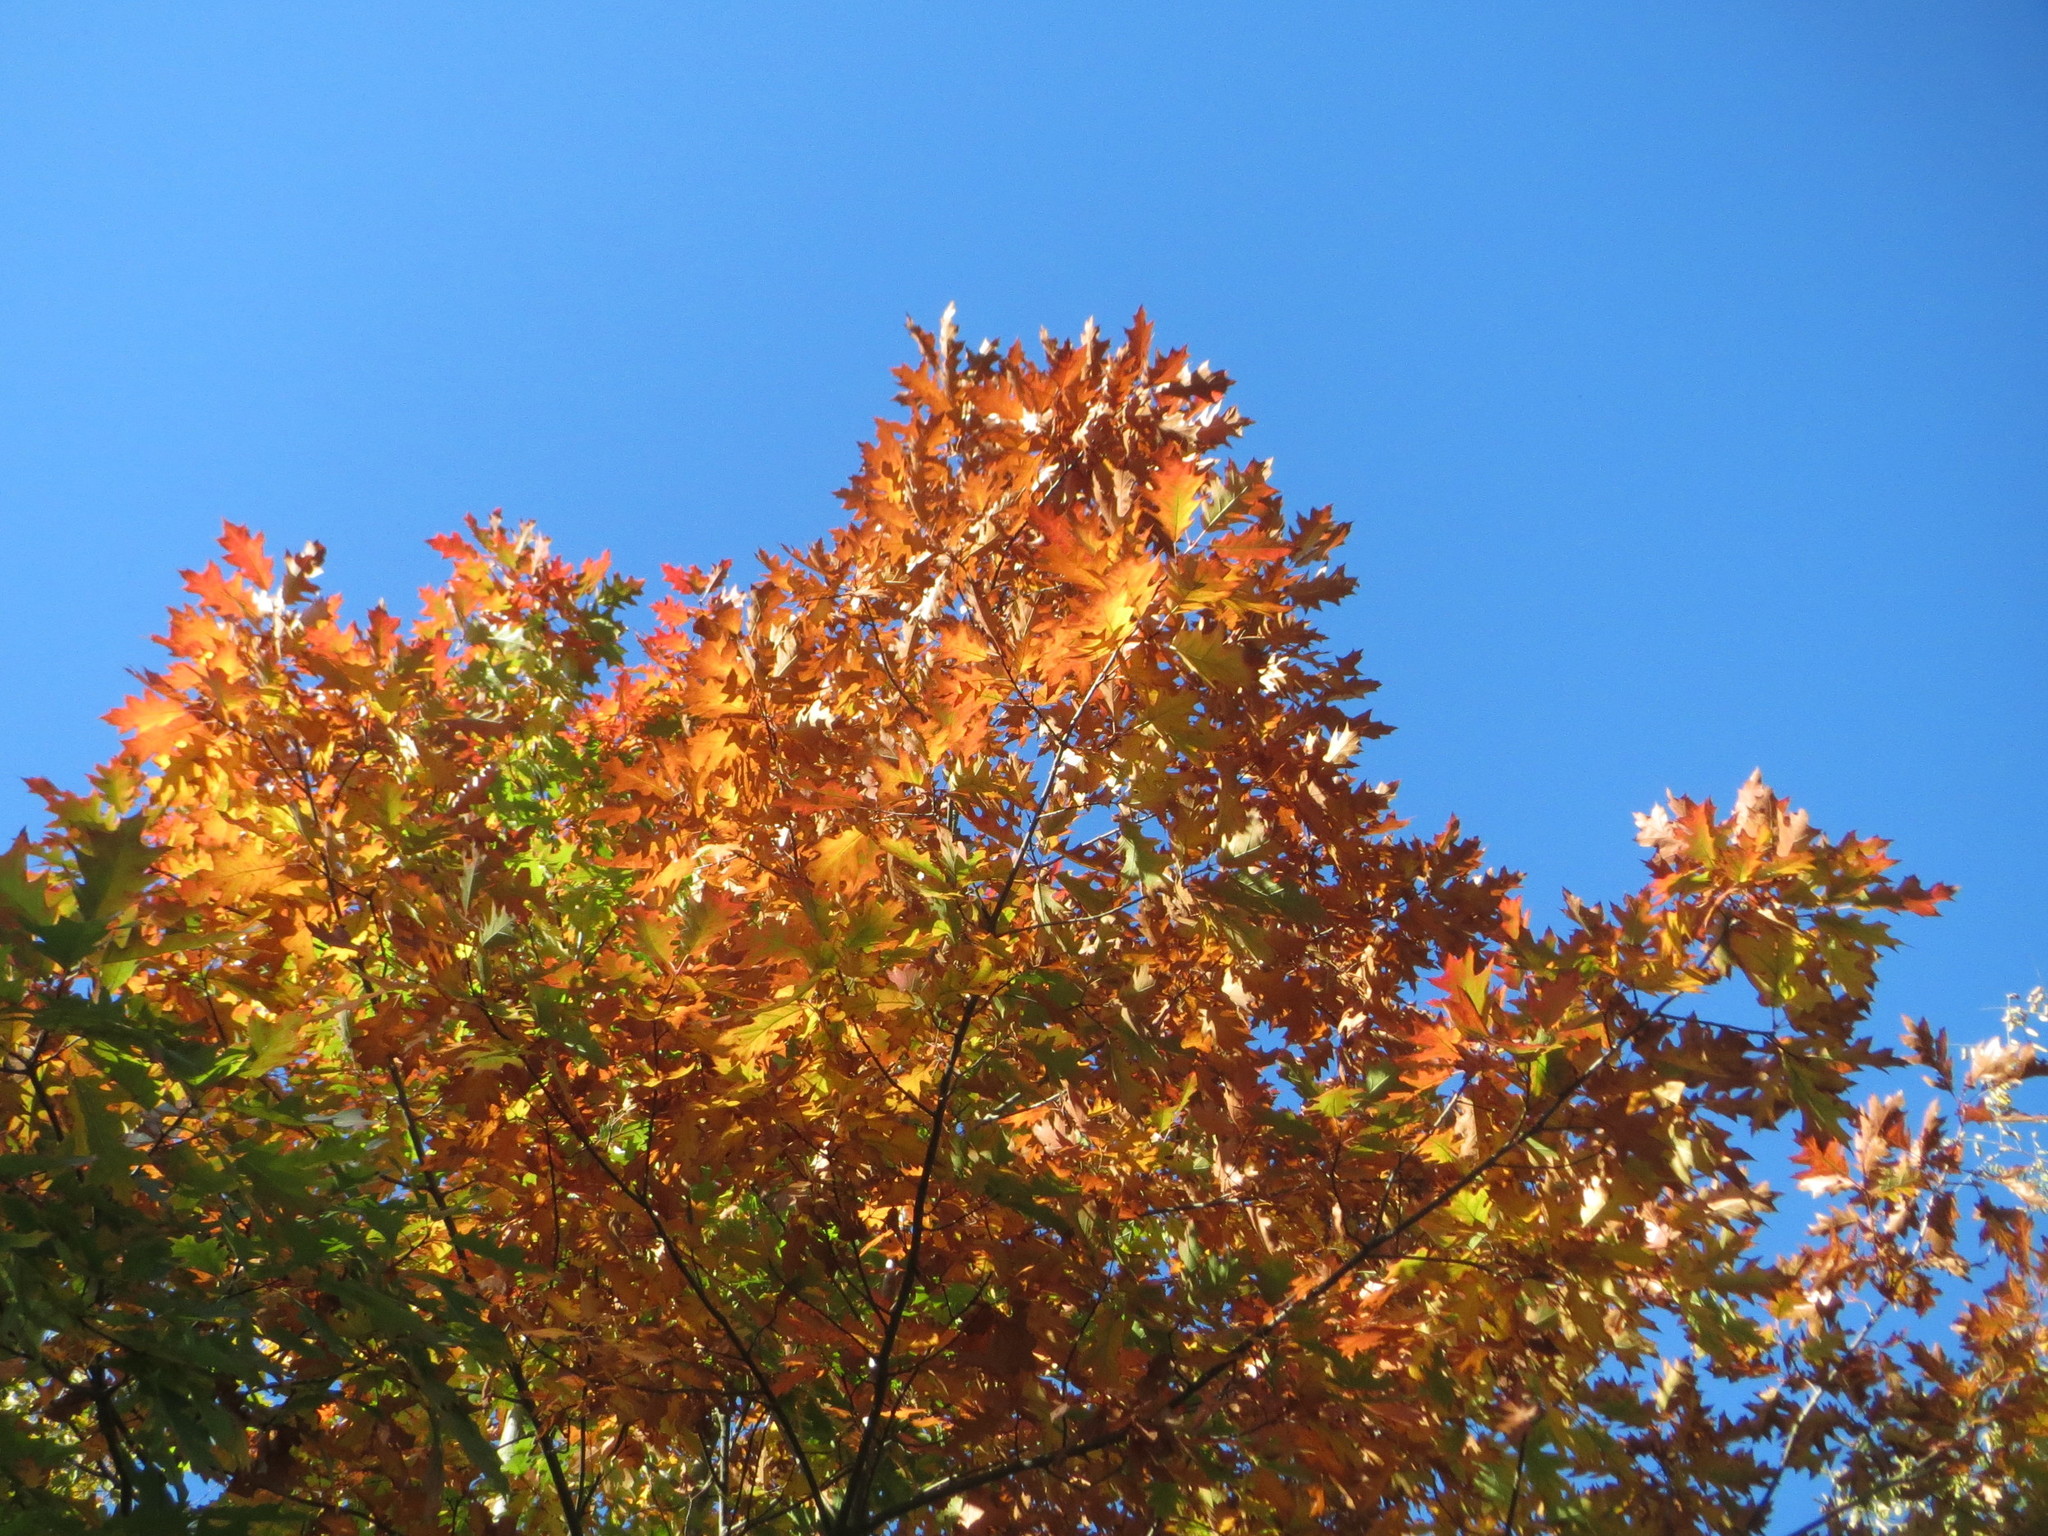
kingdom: Plantae
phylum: Tracheophyta
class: Magnoliopsida
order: Fagales
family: Fagaceae
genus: Quercus
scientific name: Quercus rubra
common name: Red oak
